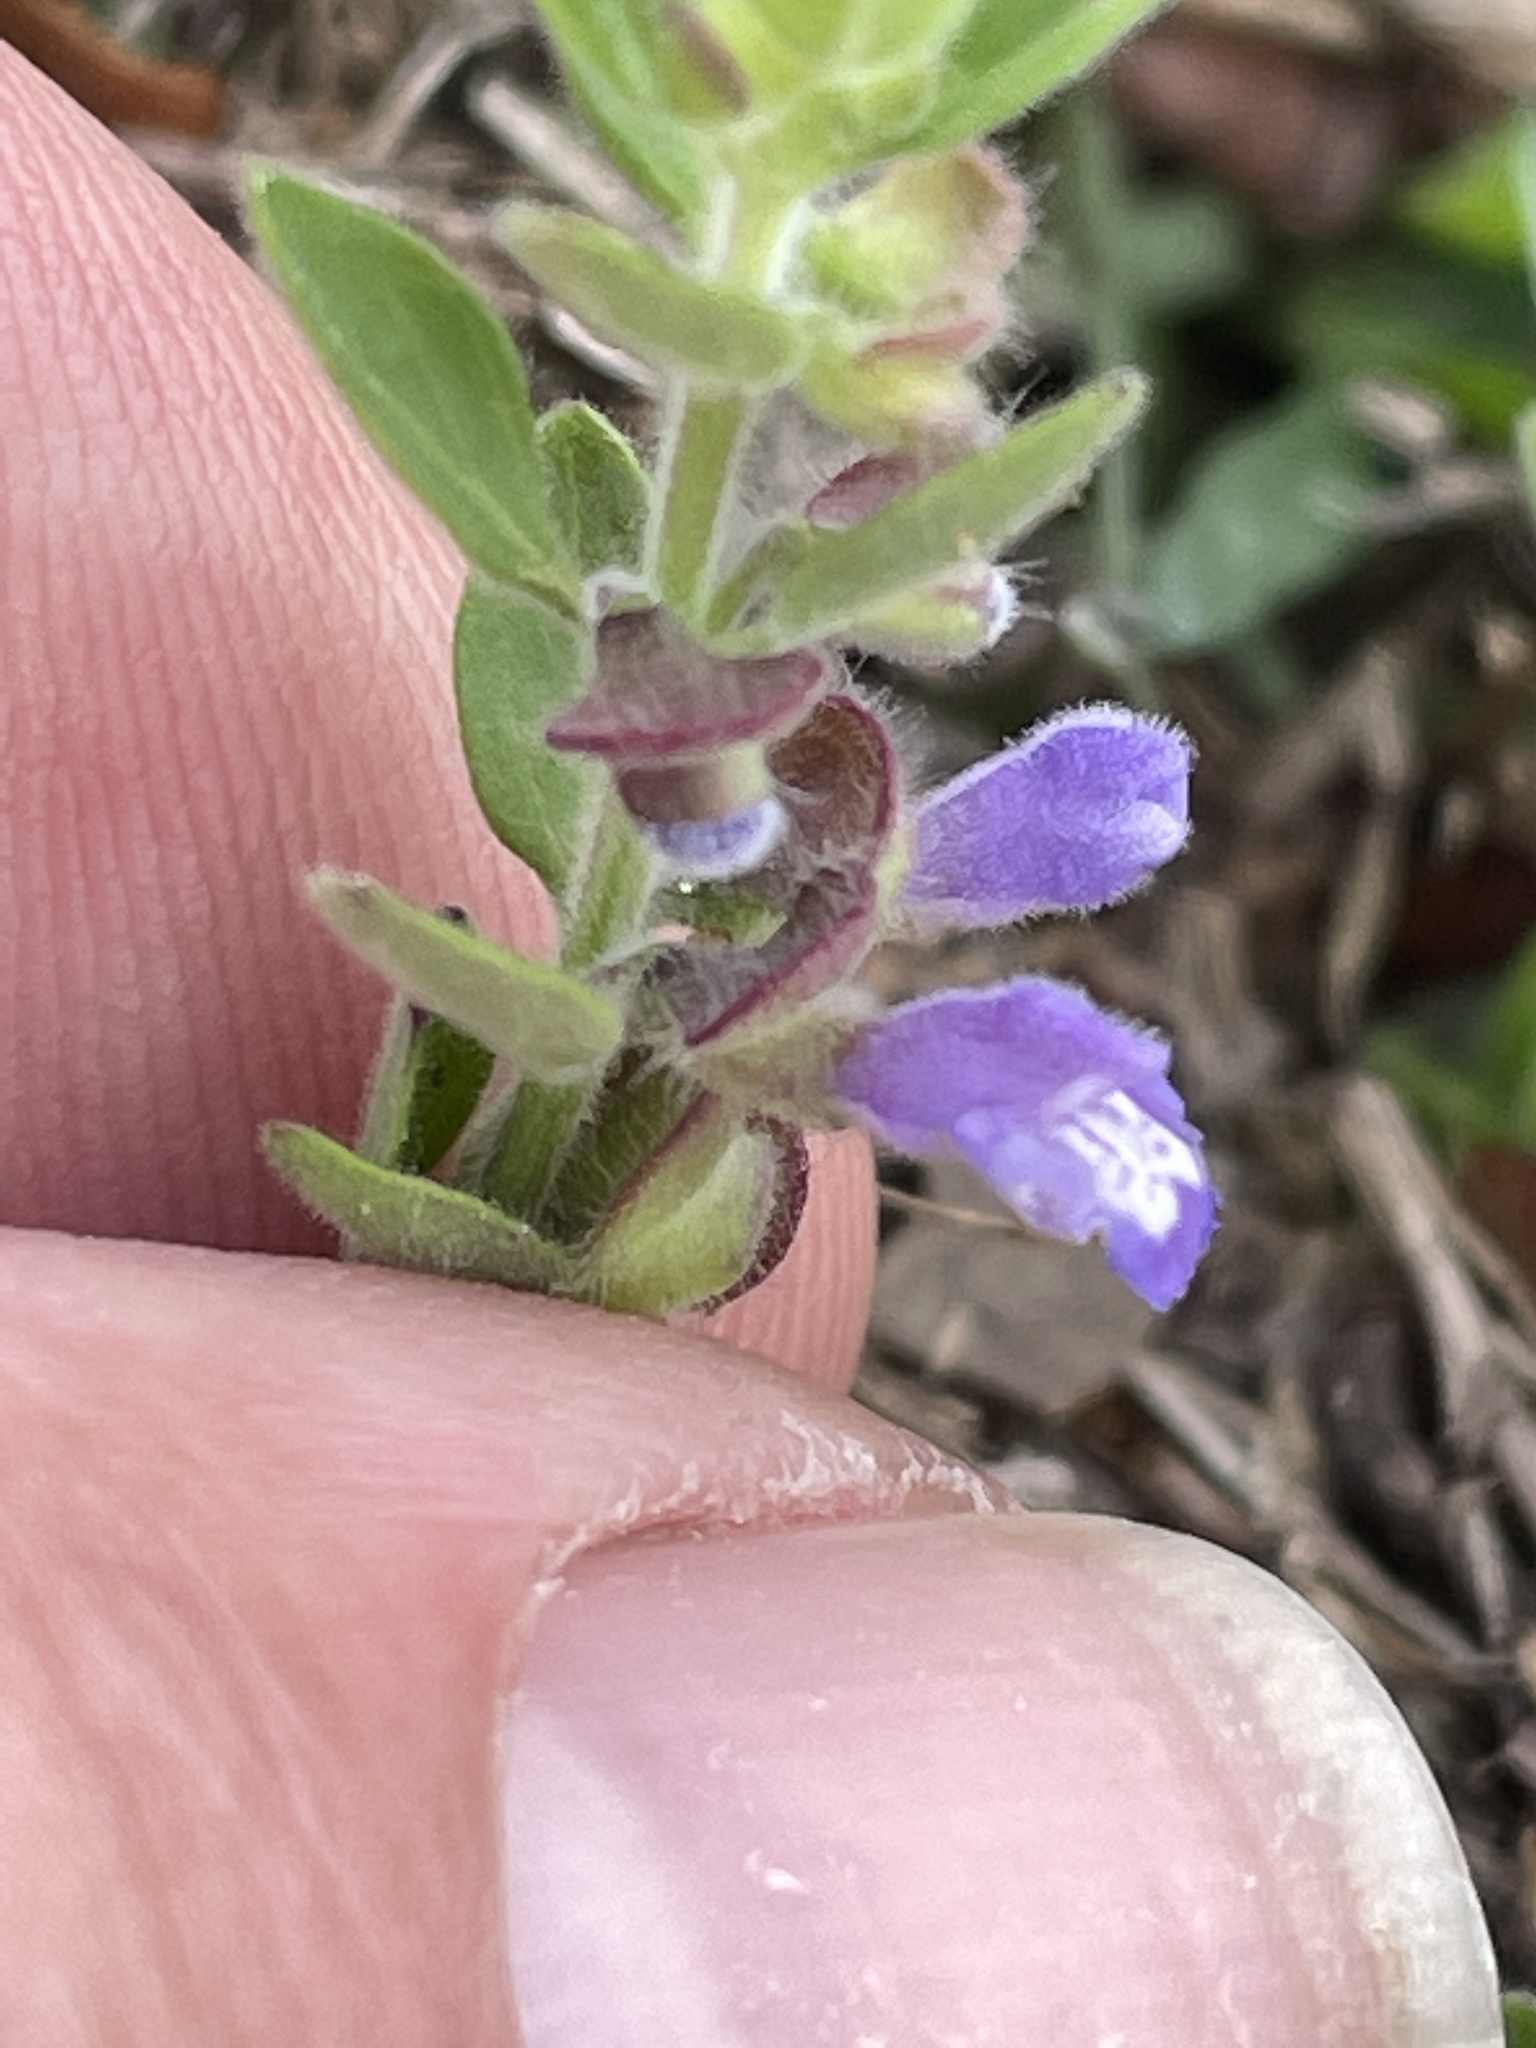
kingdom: Plantae
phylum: Tracheophyta
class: Magnoliopsida
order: Lamiales
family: Lamiaceae
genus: Scutellaria
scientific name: Scutellaria drummondii
